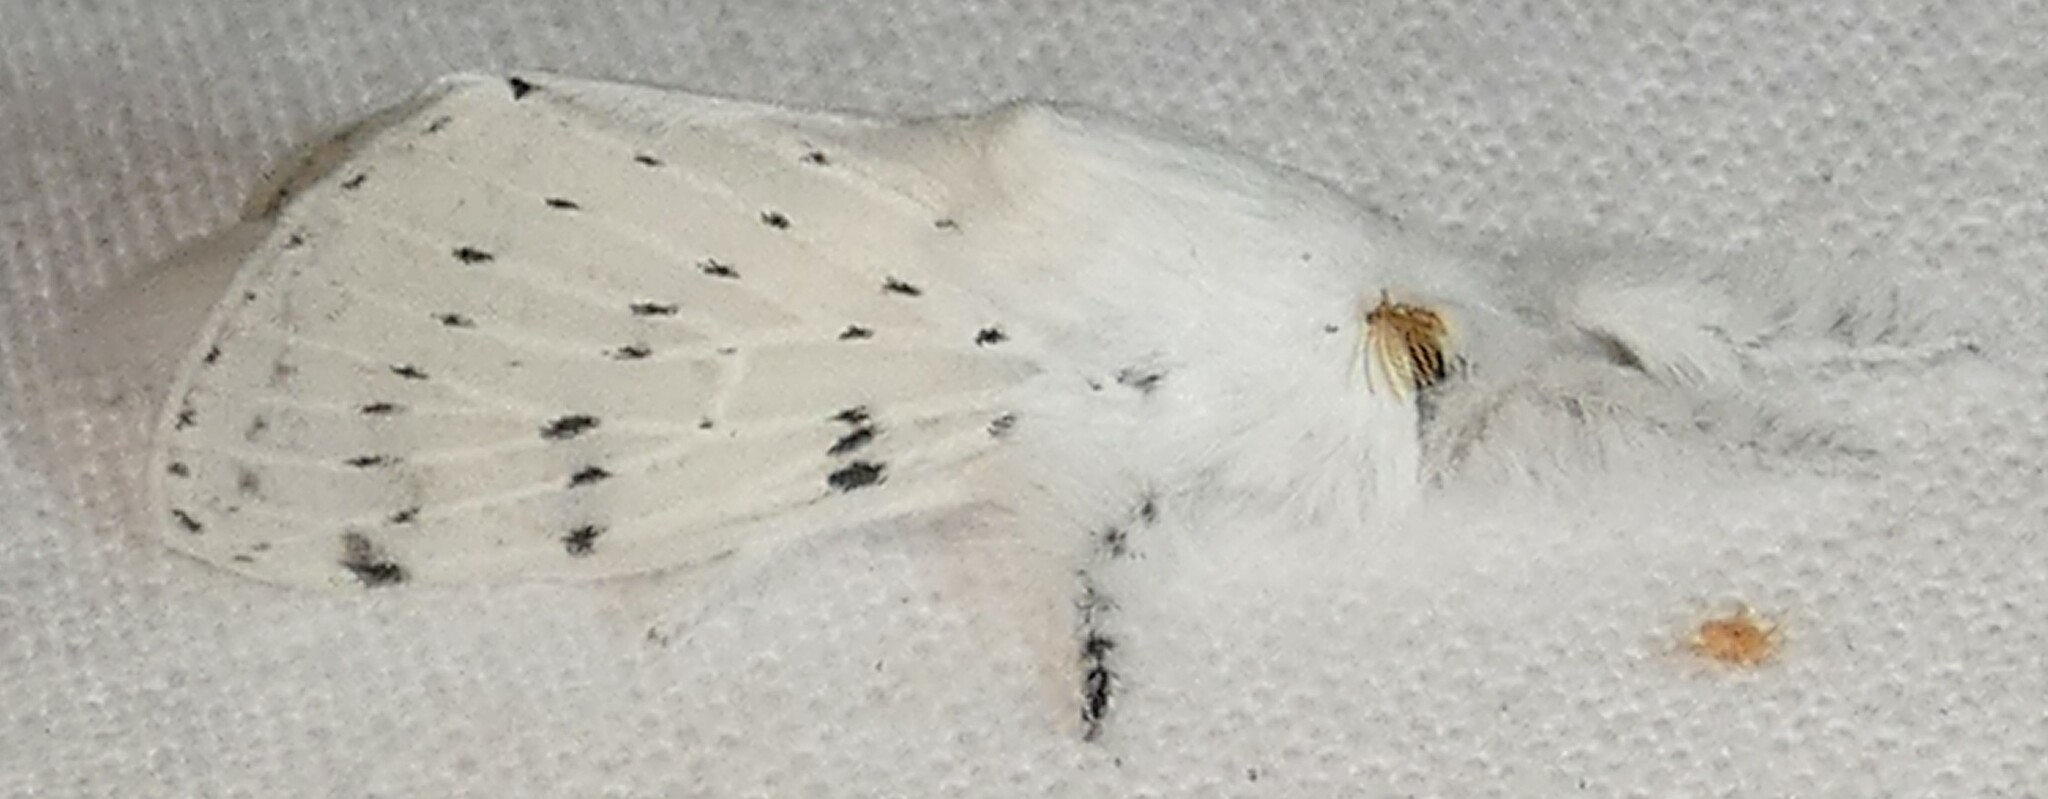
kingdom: Animalia
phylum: Arthropoda
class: Insecta
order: Lepidoptera
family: Lasiocampidae
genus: Artace
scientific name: Artace cribrarius
